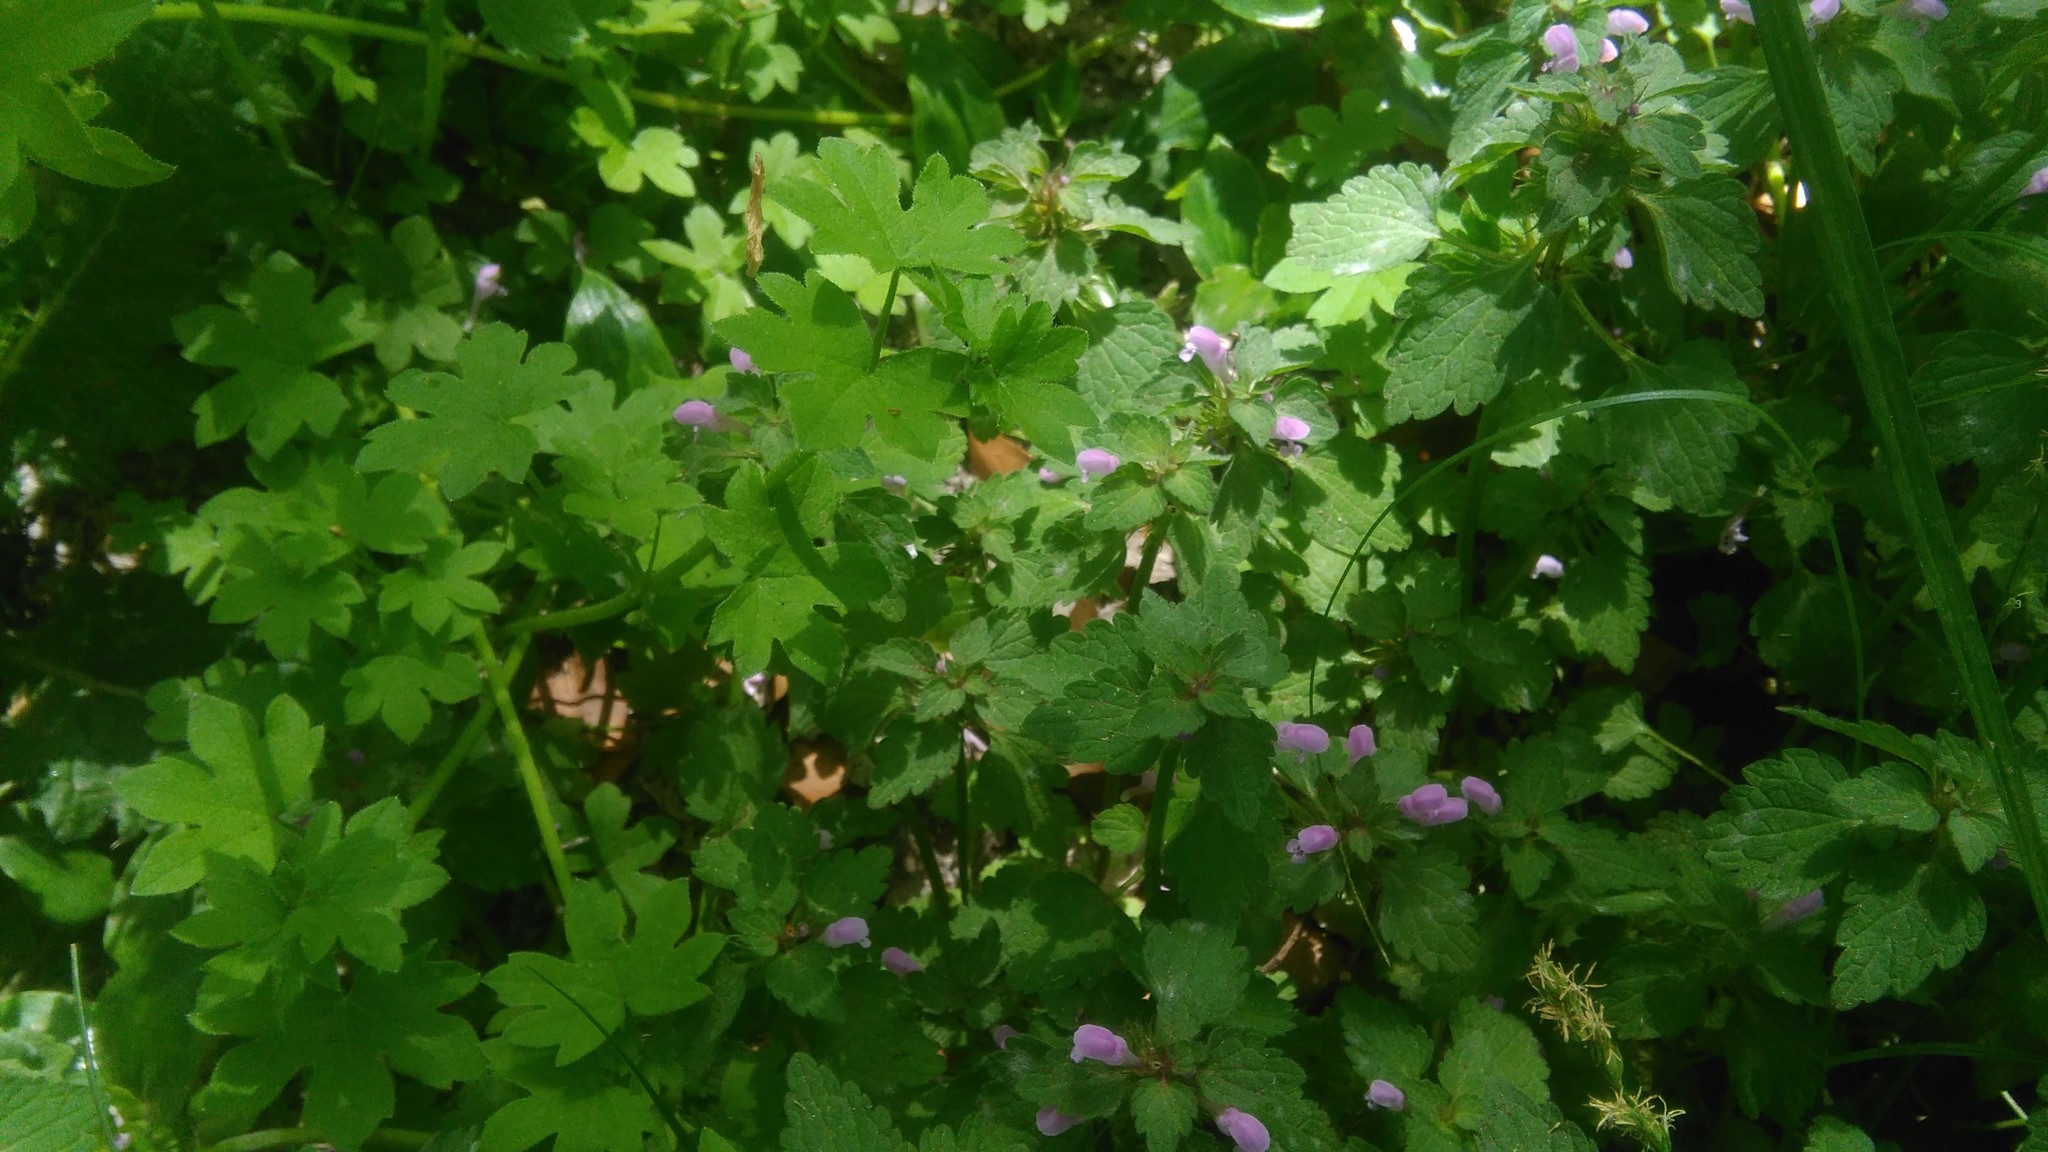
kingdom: Plantae
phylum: Tracheophyta
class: Magnoliopsida
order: Lamiales
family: Lamiaceae
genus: Lamium
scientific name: Lamium purpureum
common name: Red dead-nettle
